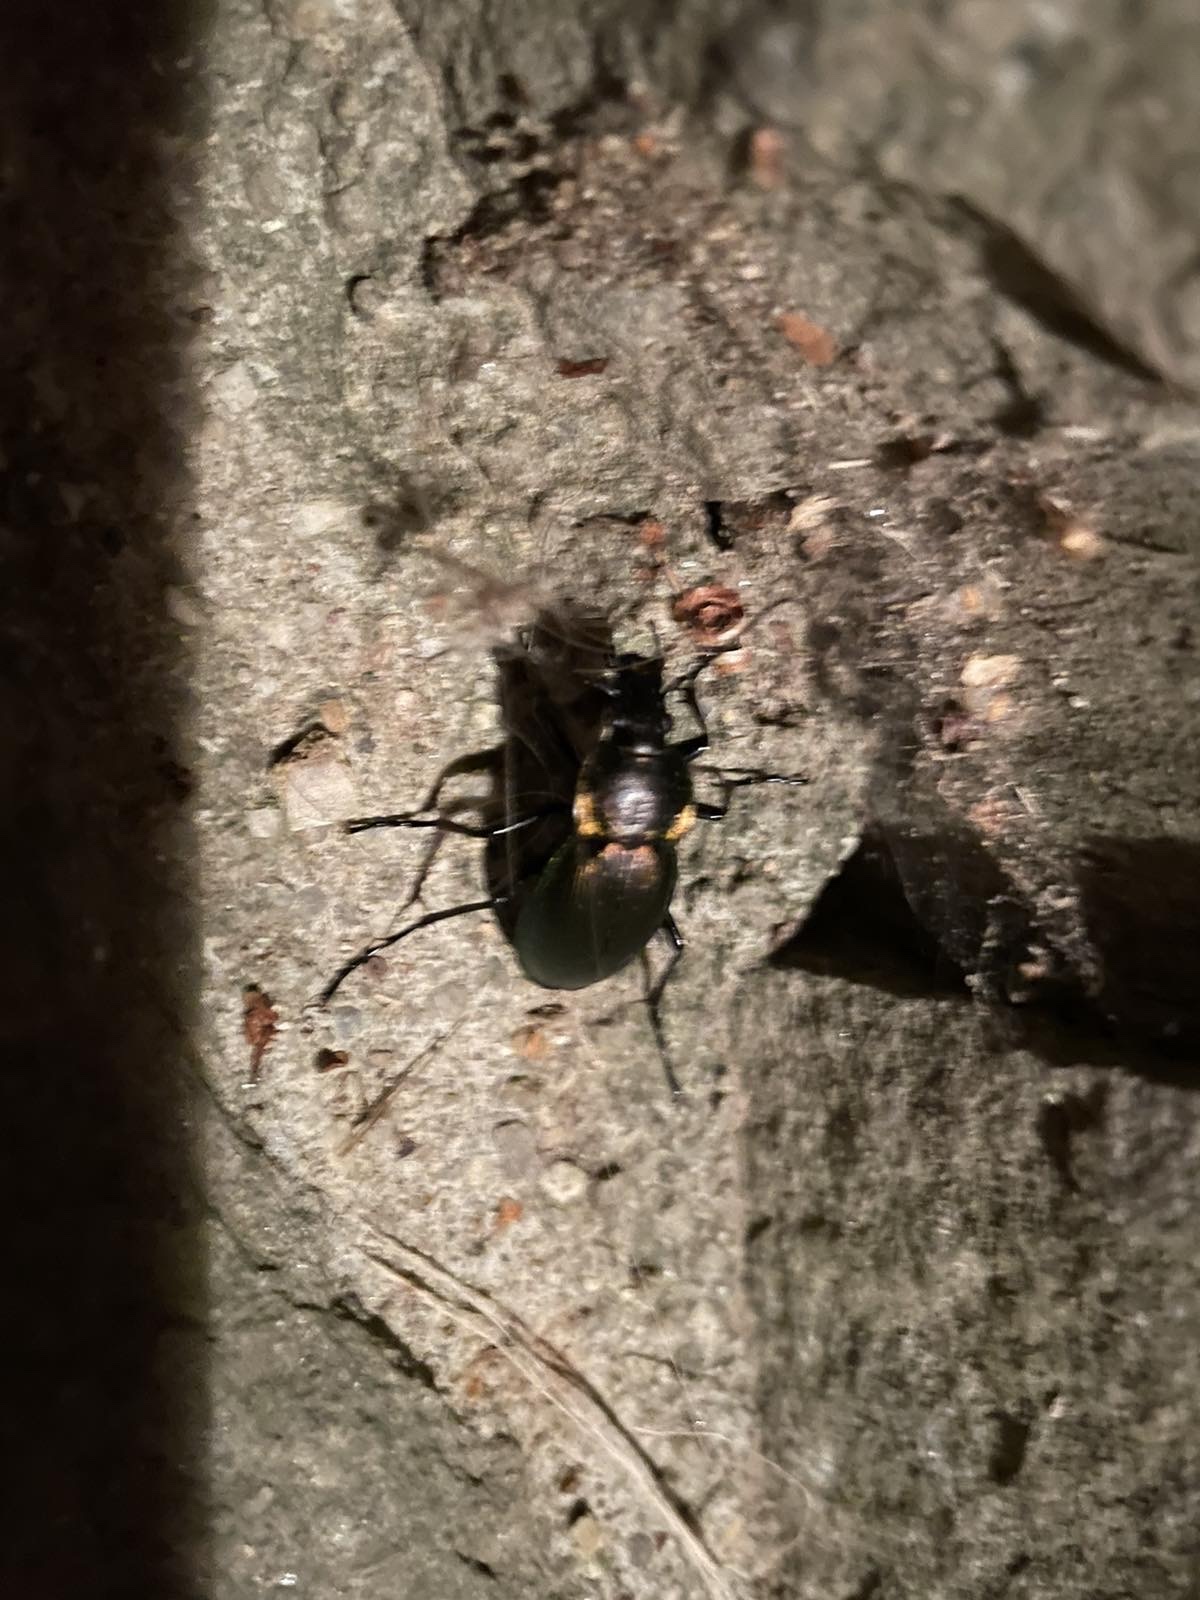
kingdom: Animalia
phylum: Arthropoda
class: Insecta
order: Coleoptera
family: Carabidae
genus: Carabus
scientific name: Carabus scheidleri
